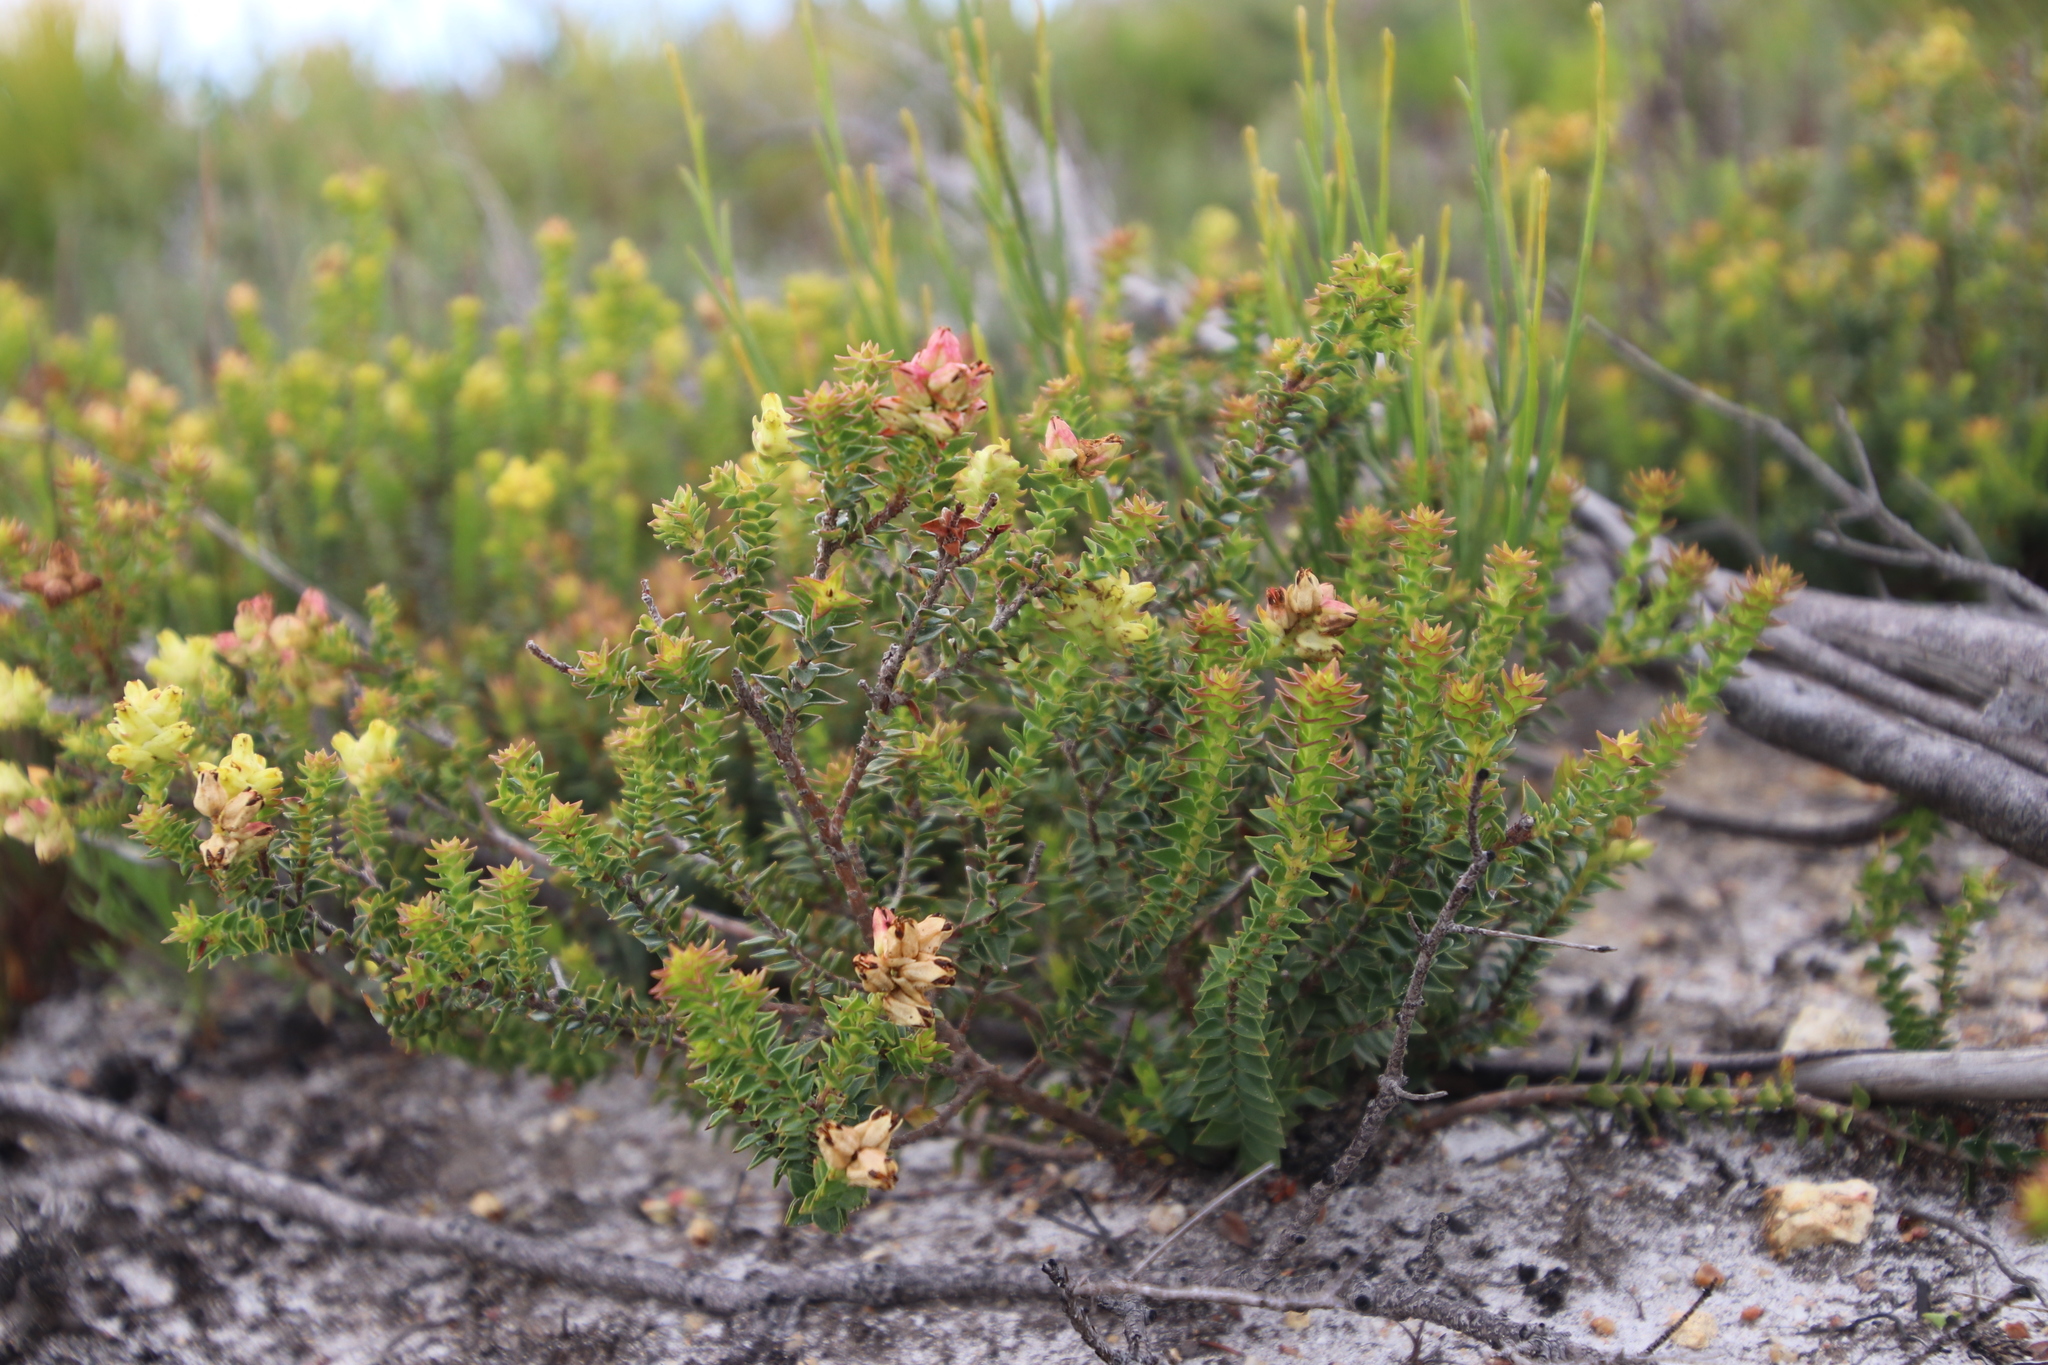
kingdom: Plantae
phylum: Tracheophyta
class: Magnoliopsida
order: Myrtales
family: Penaeaceae
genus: Penaea
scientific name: Penaea mucronata
